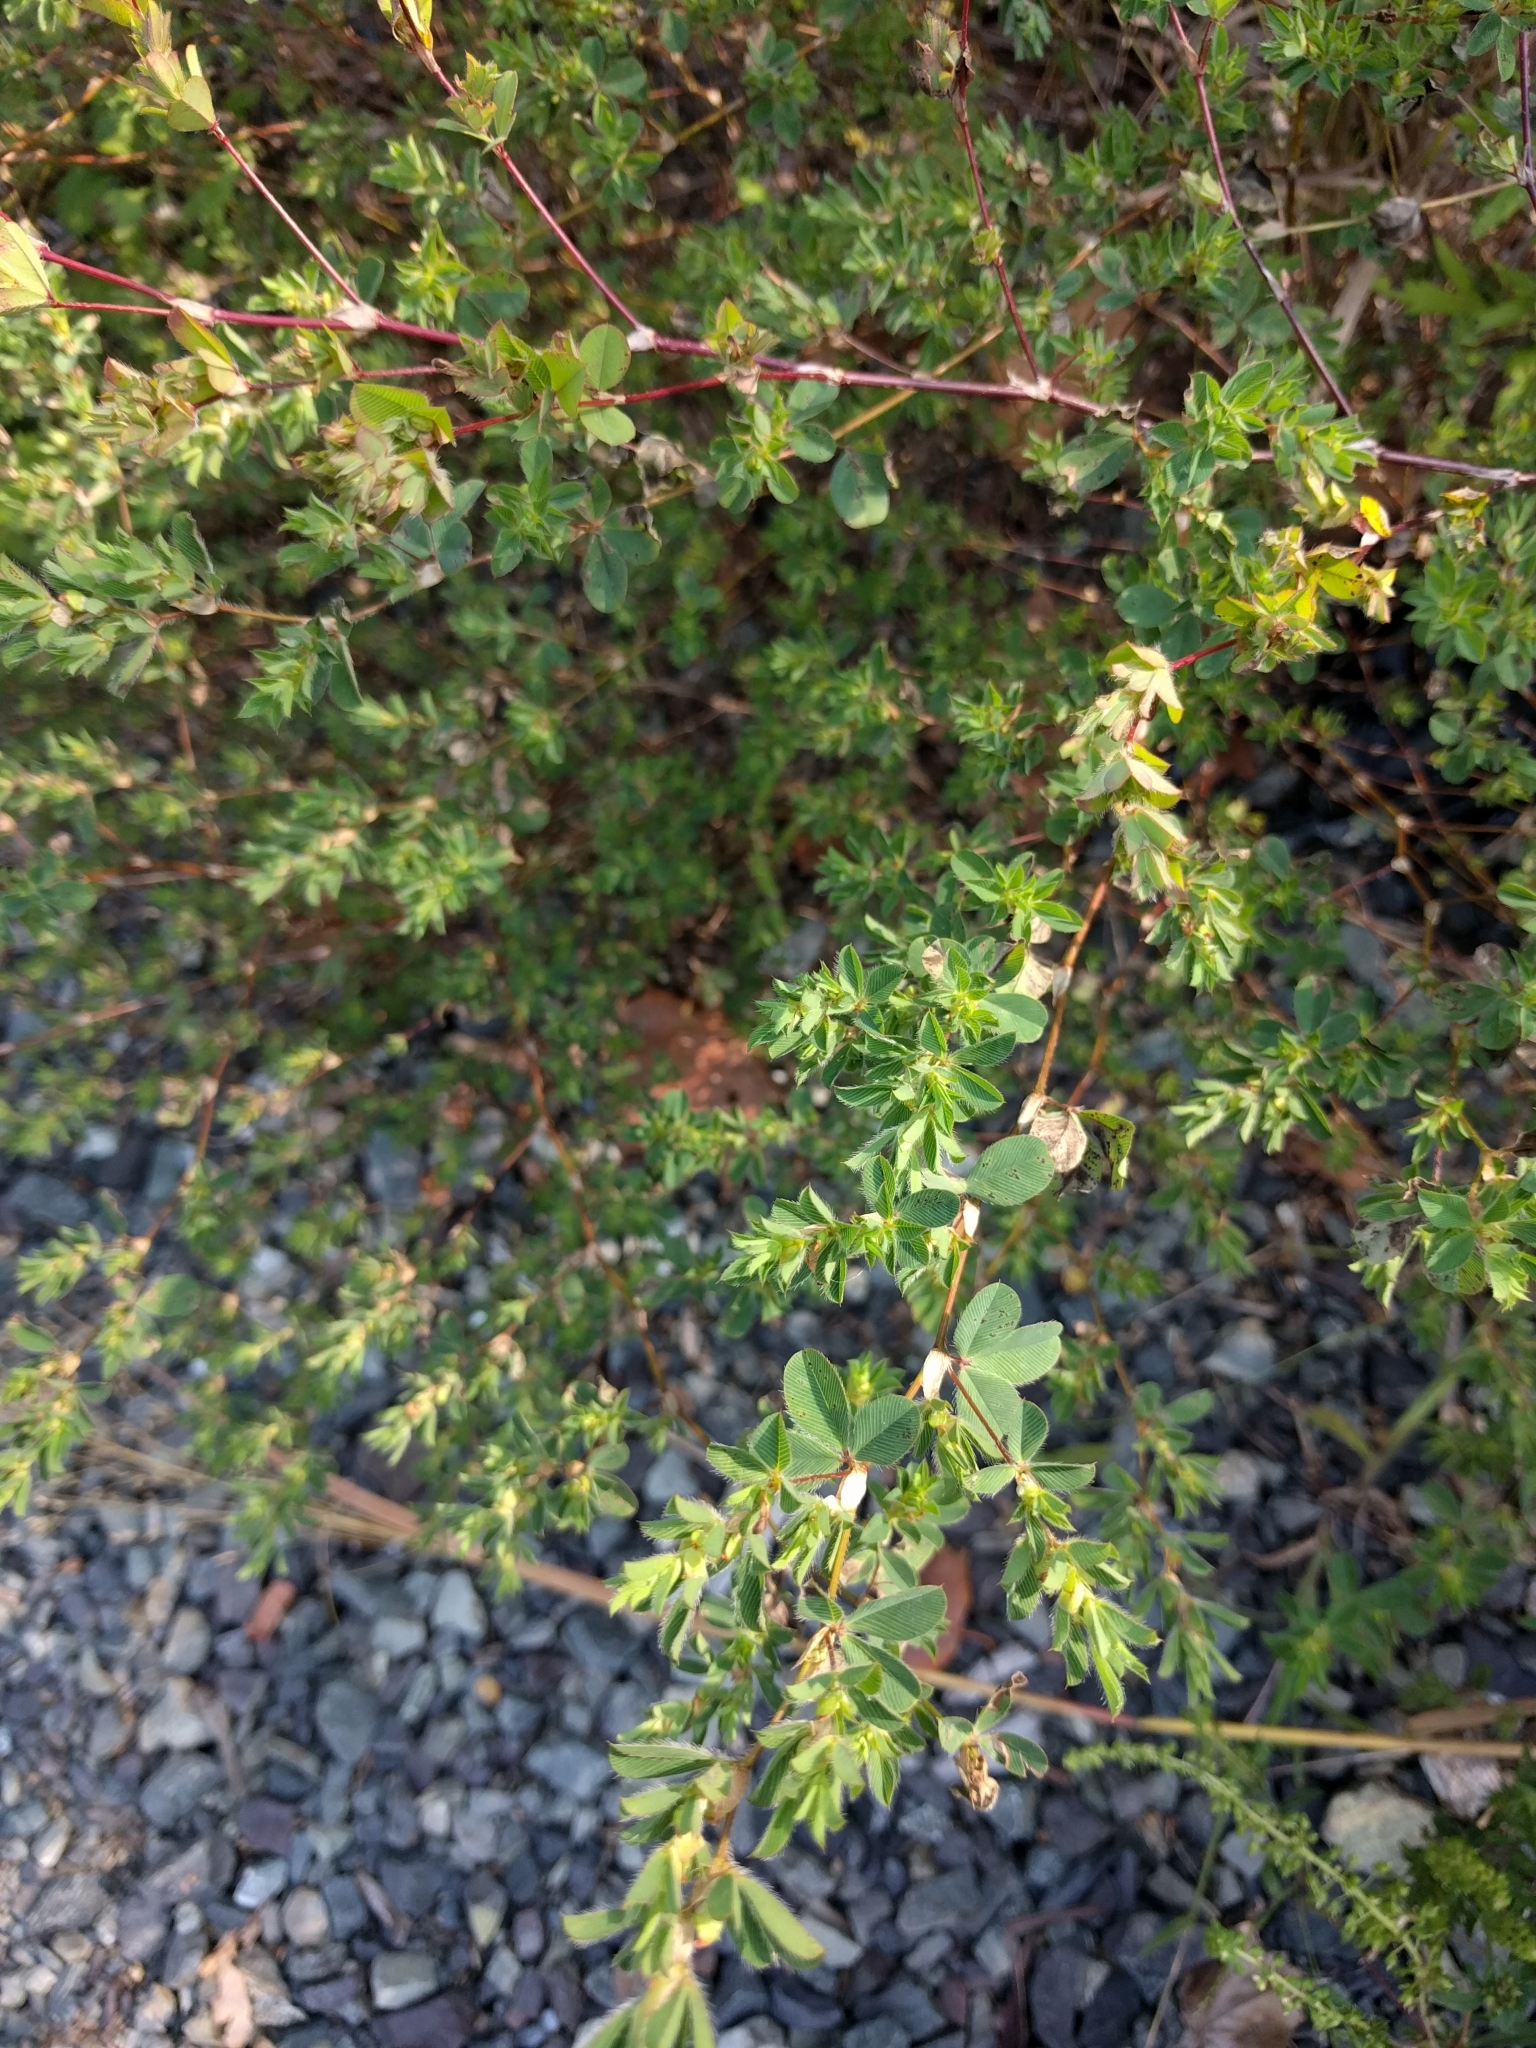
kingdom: Plantae
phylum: Tracheophyta
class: Magnoliopsida
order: Fabales
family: Fabaceae
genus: Kummerowia
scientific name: Kummerowia stipulacea
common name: Korean clover
